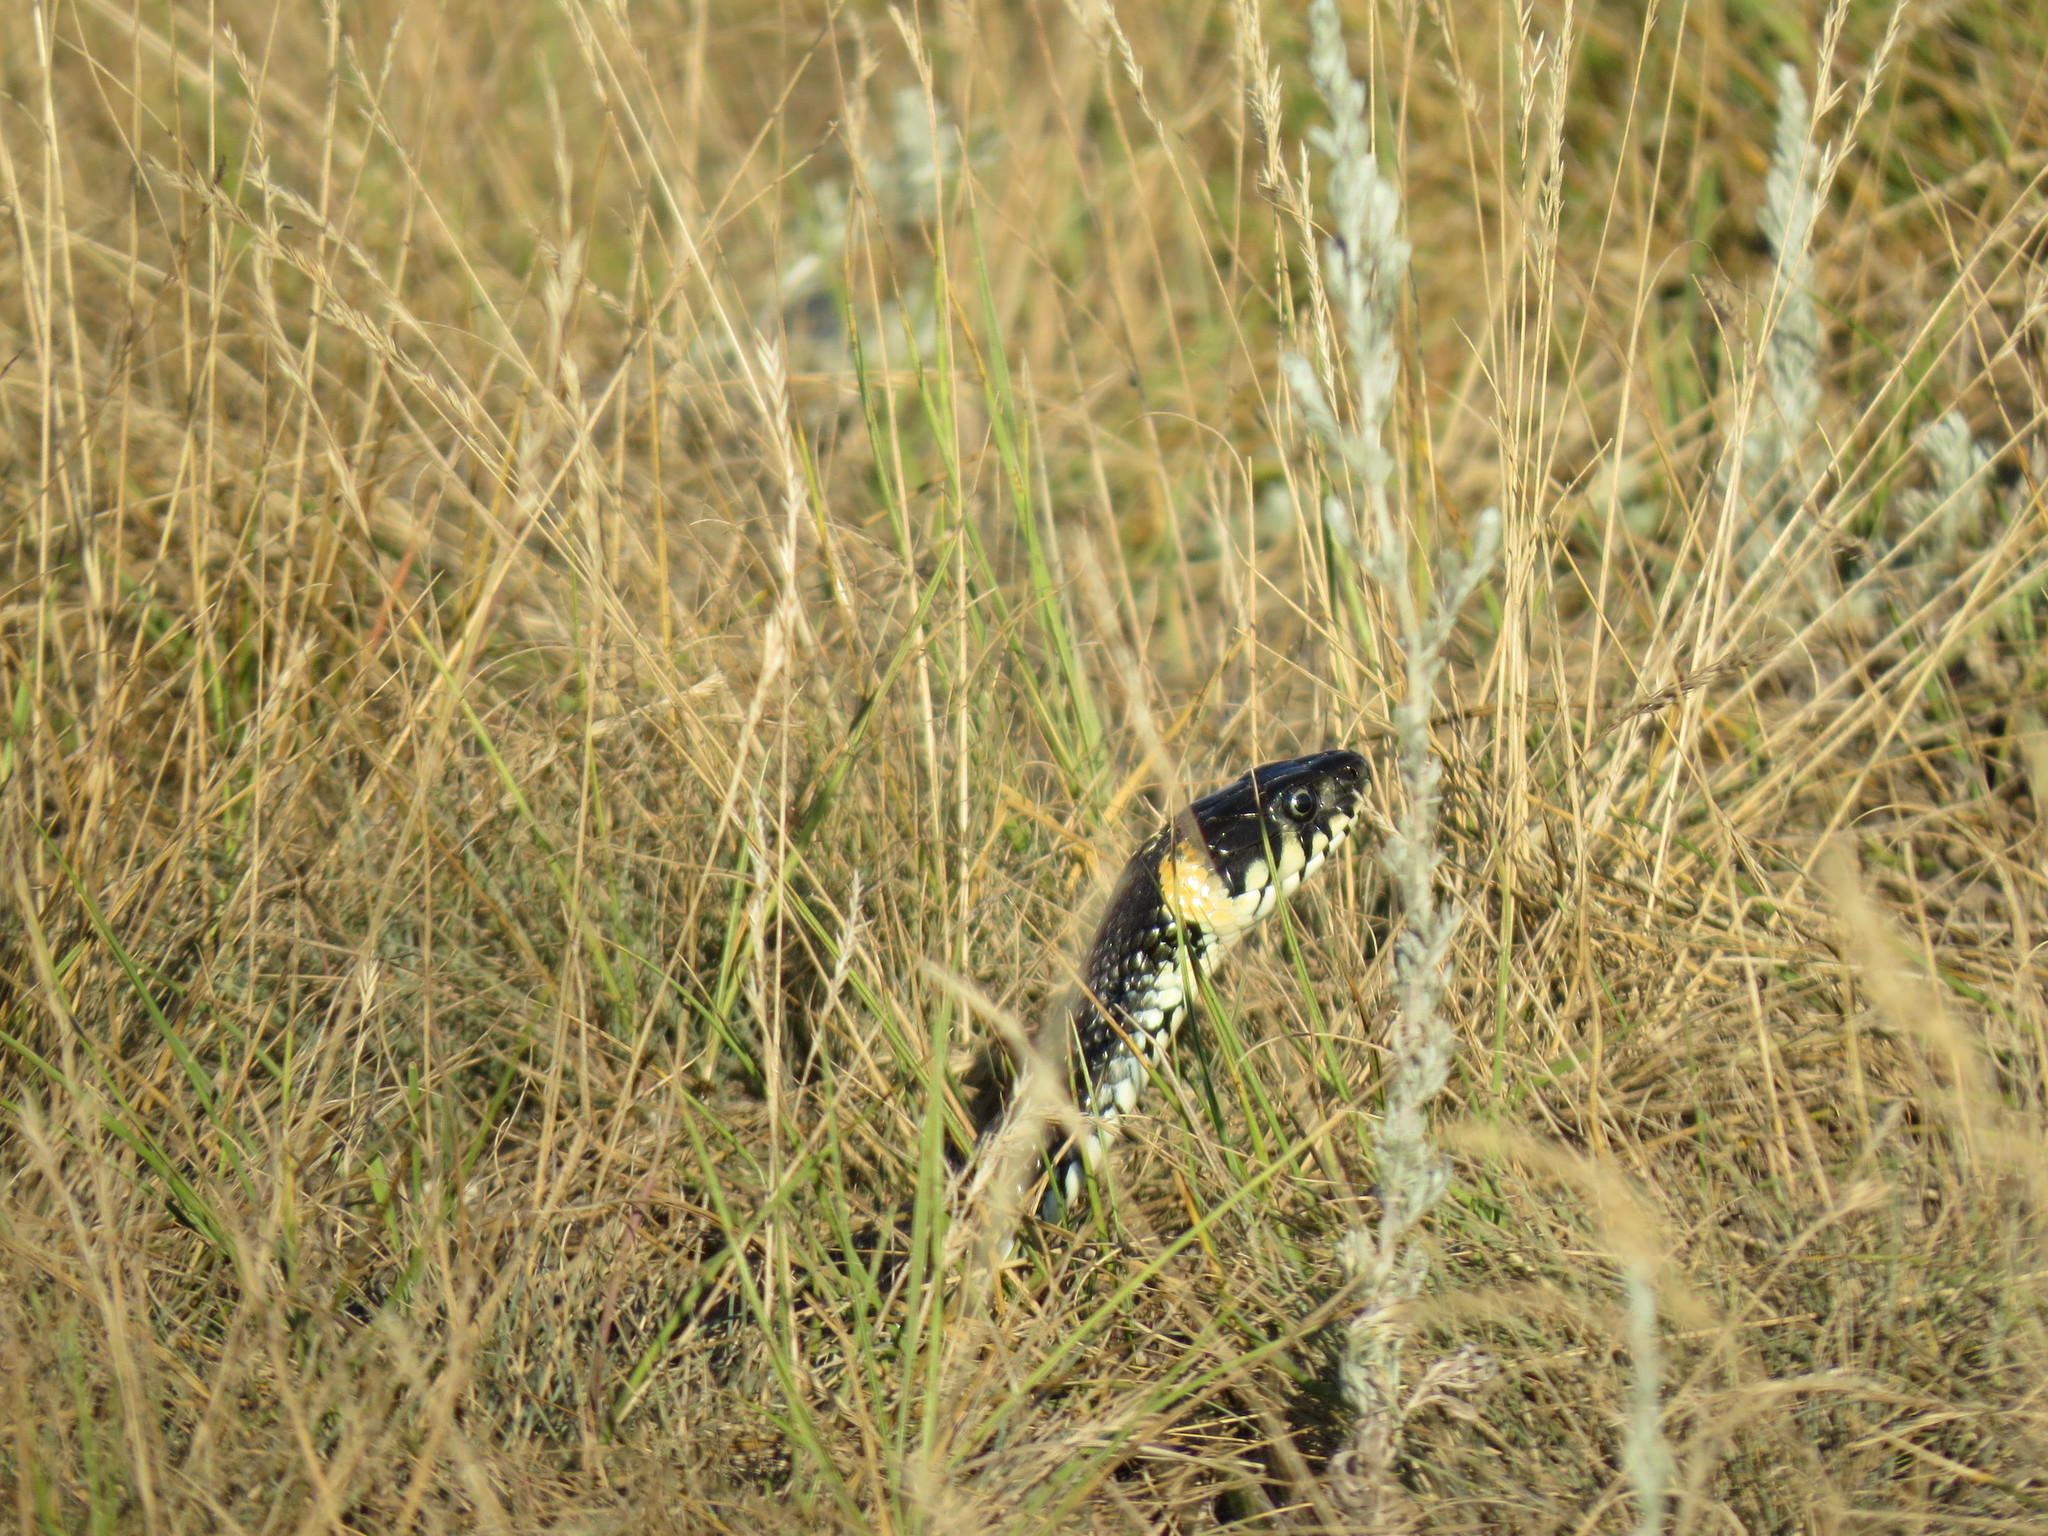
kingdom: Animalia
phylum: Chordata
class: Squamata
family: Colubridae
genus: Natrix
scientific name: Natrix natrix
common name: Grass snake
